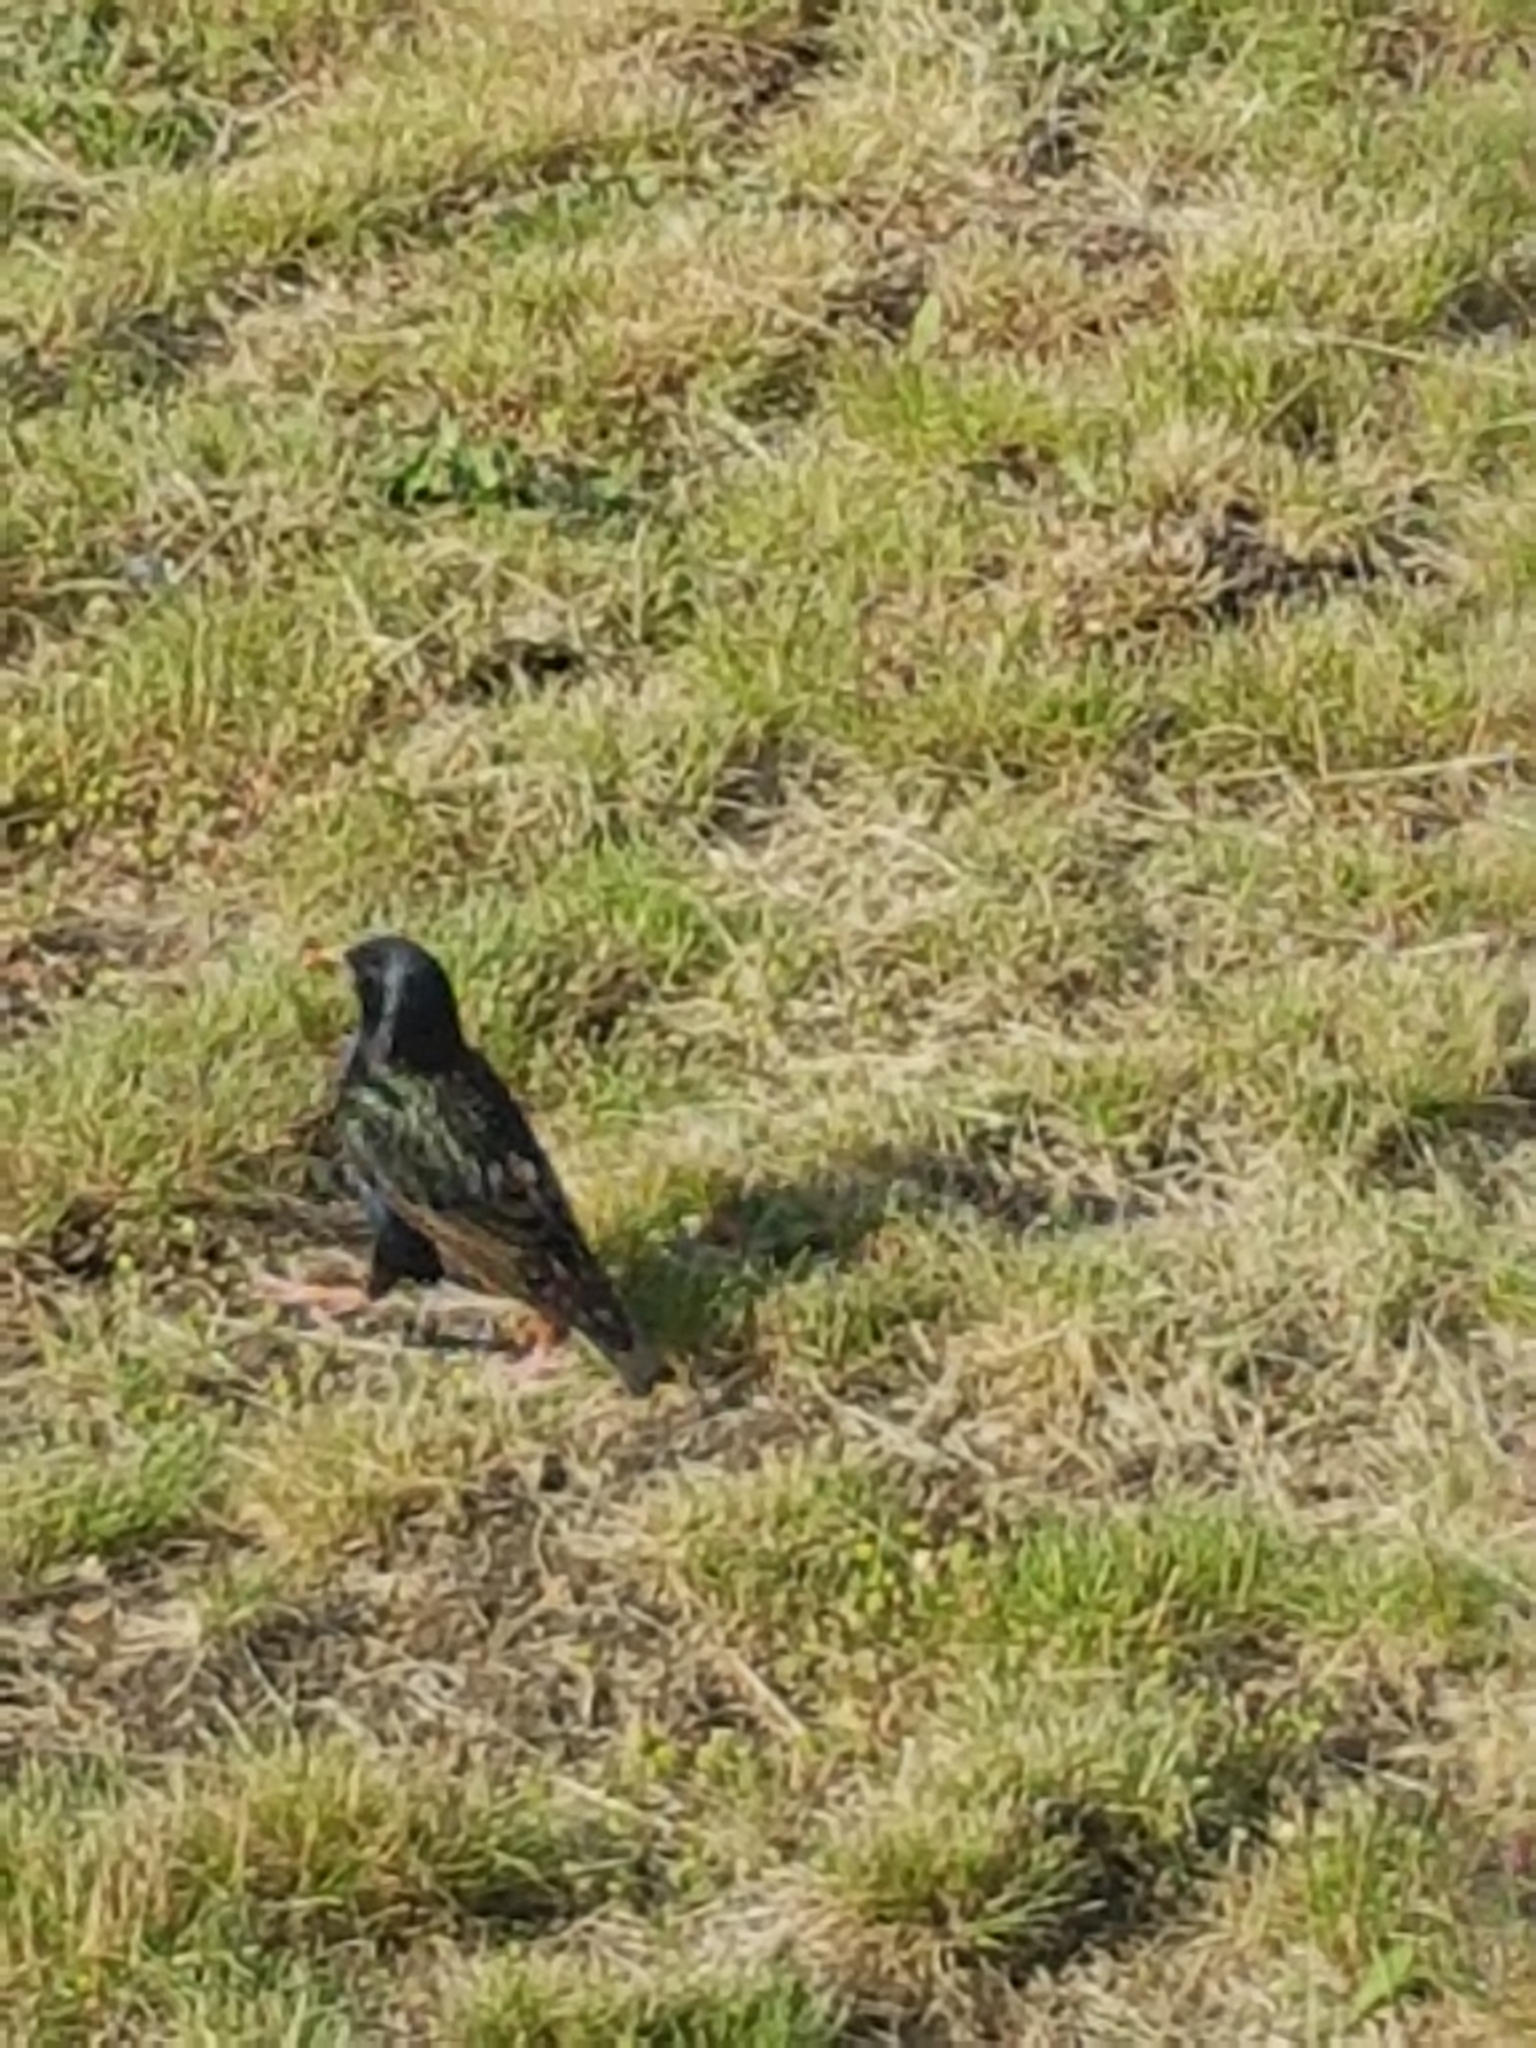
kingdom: Animalia
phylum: Chordata
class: Aves
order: Passeriformes
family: Sturnidae
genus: Sturnus
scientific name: Sturnus vulgaris
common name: Common starling
